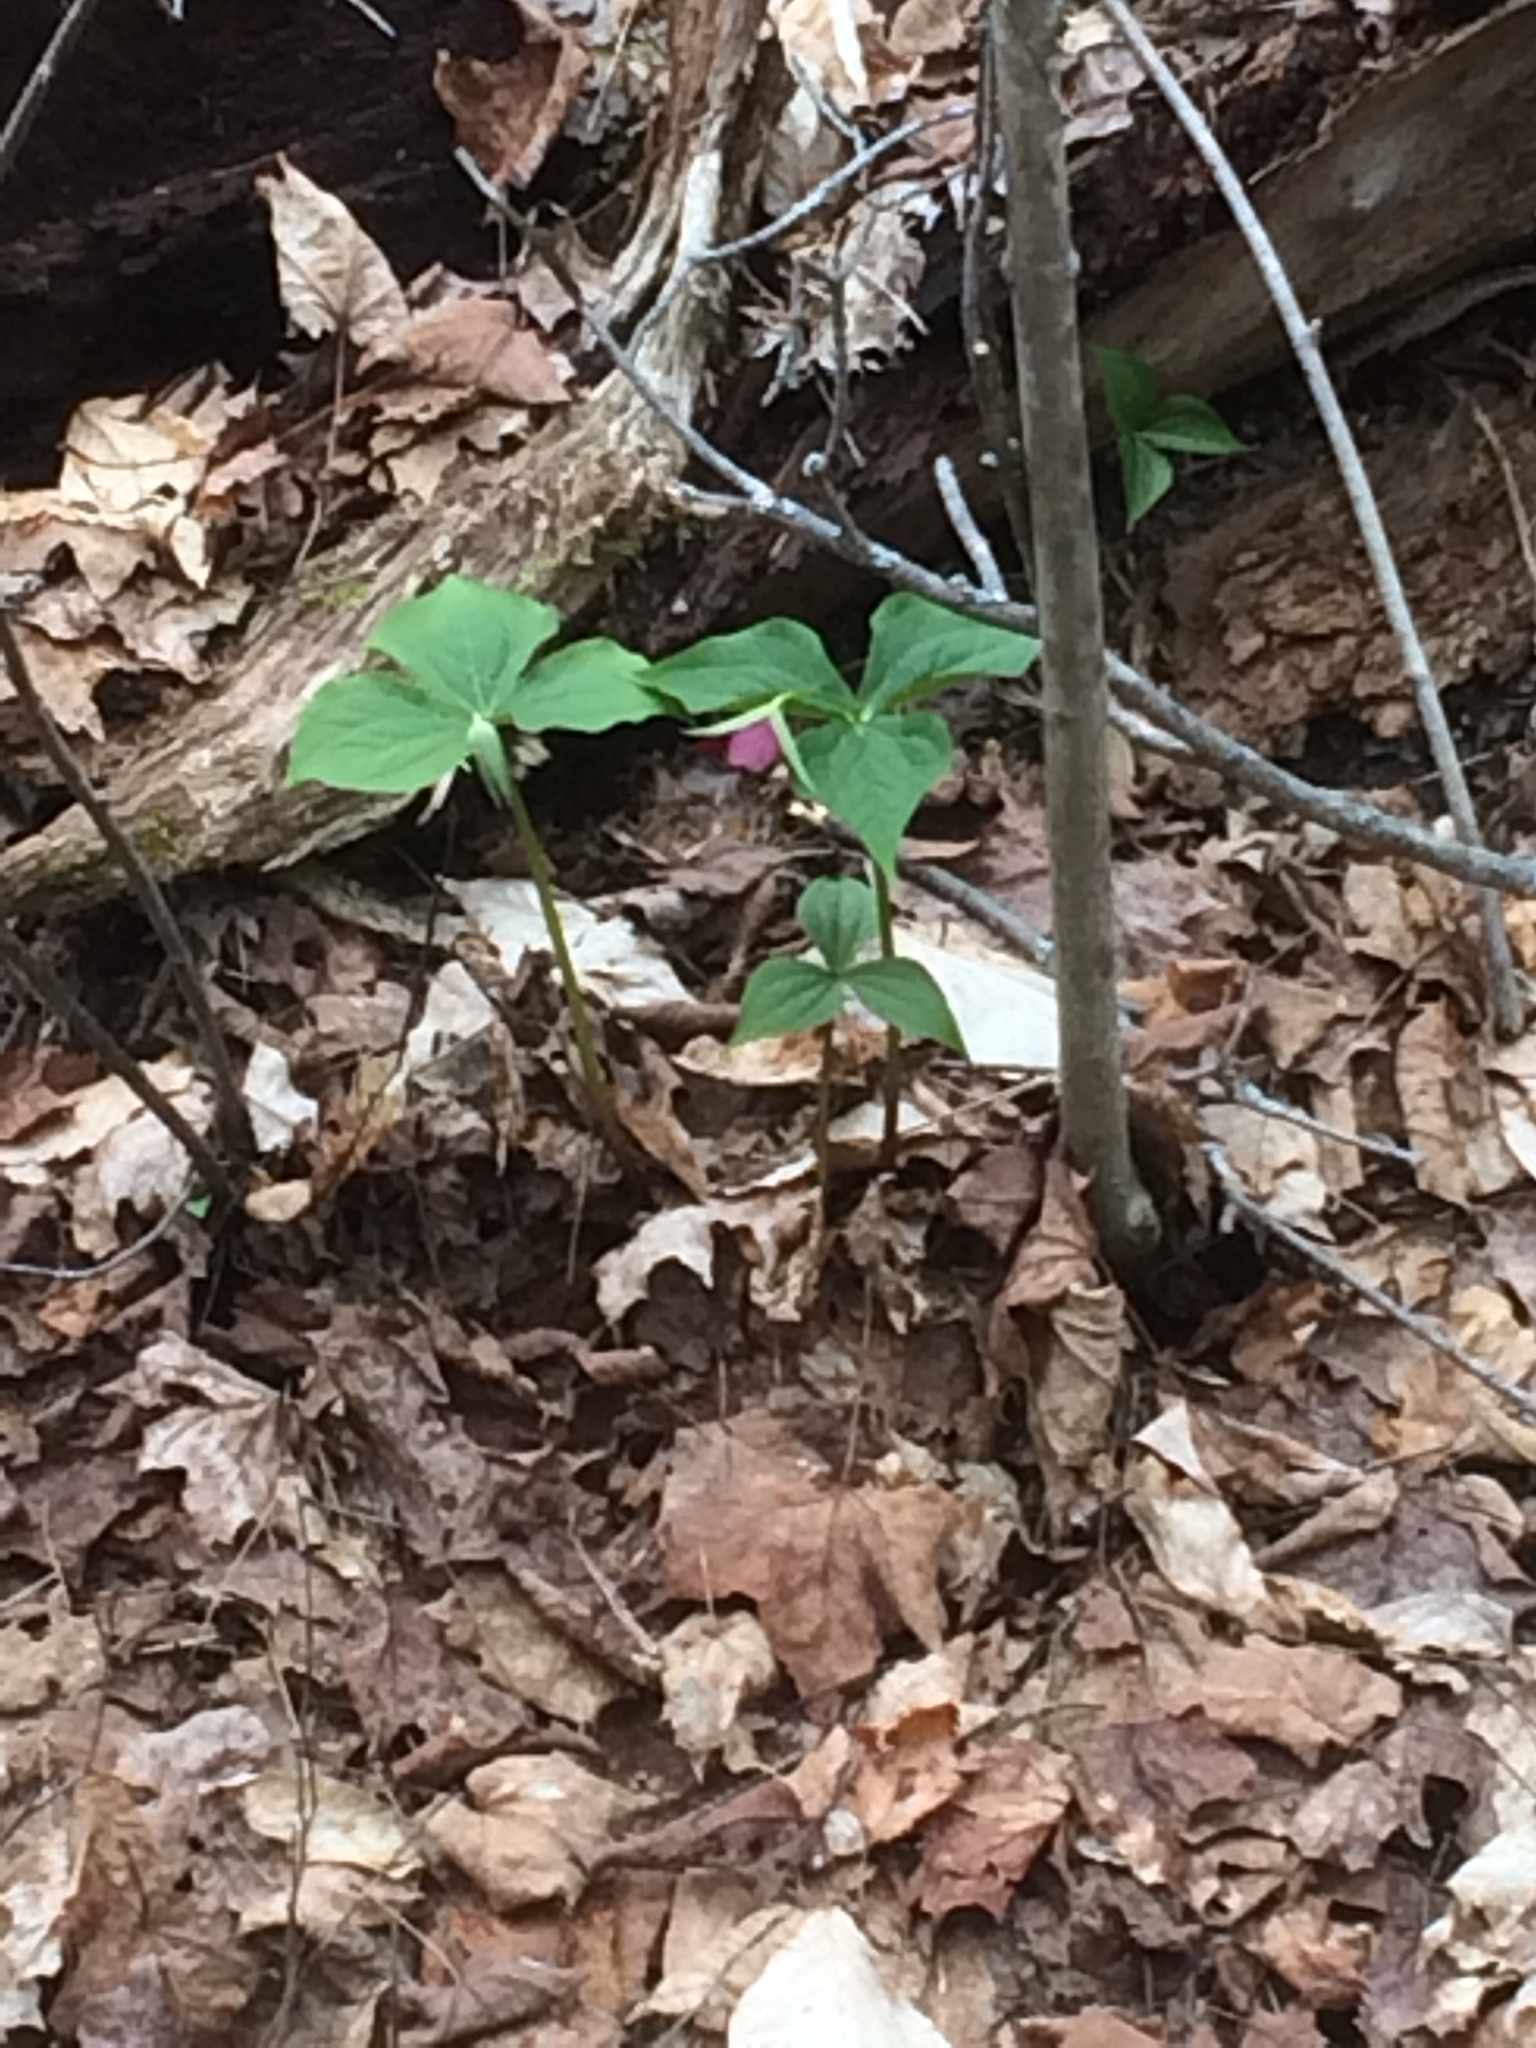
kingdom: Plantae
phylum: Tracheophyta
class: Liliopsida
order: Liliales
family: Melanthiaceae
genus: Trillium
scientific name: Trillium erectum
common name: Purple trillium
